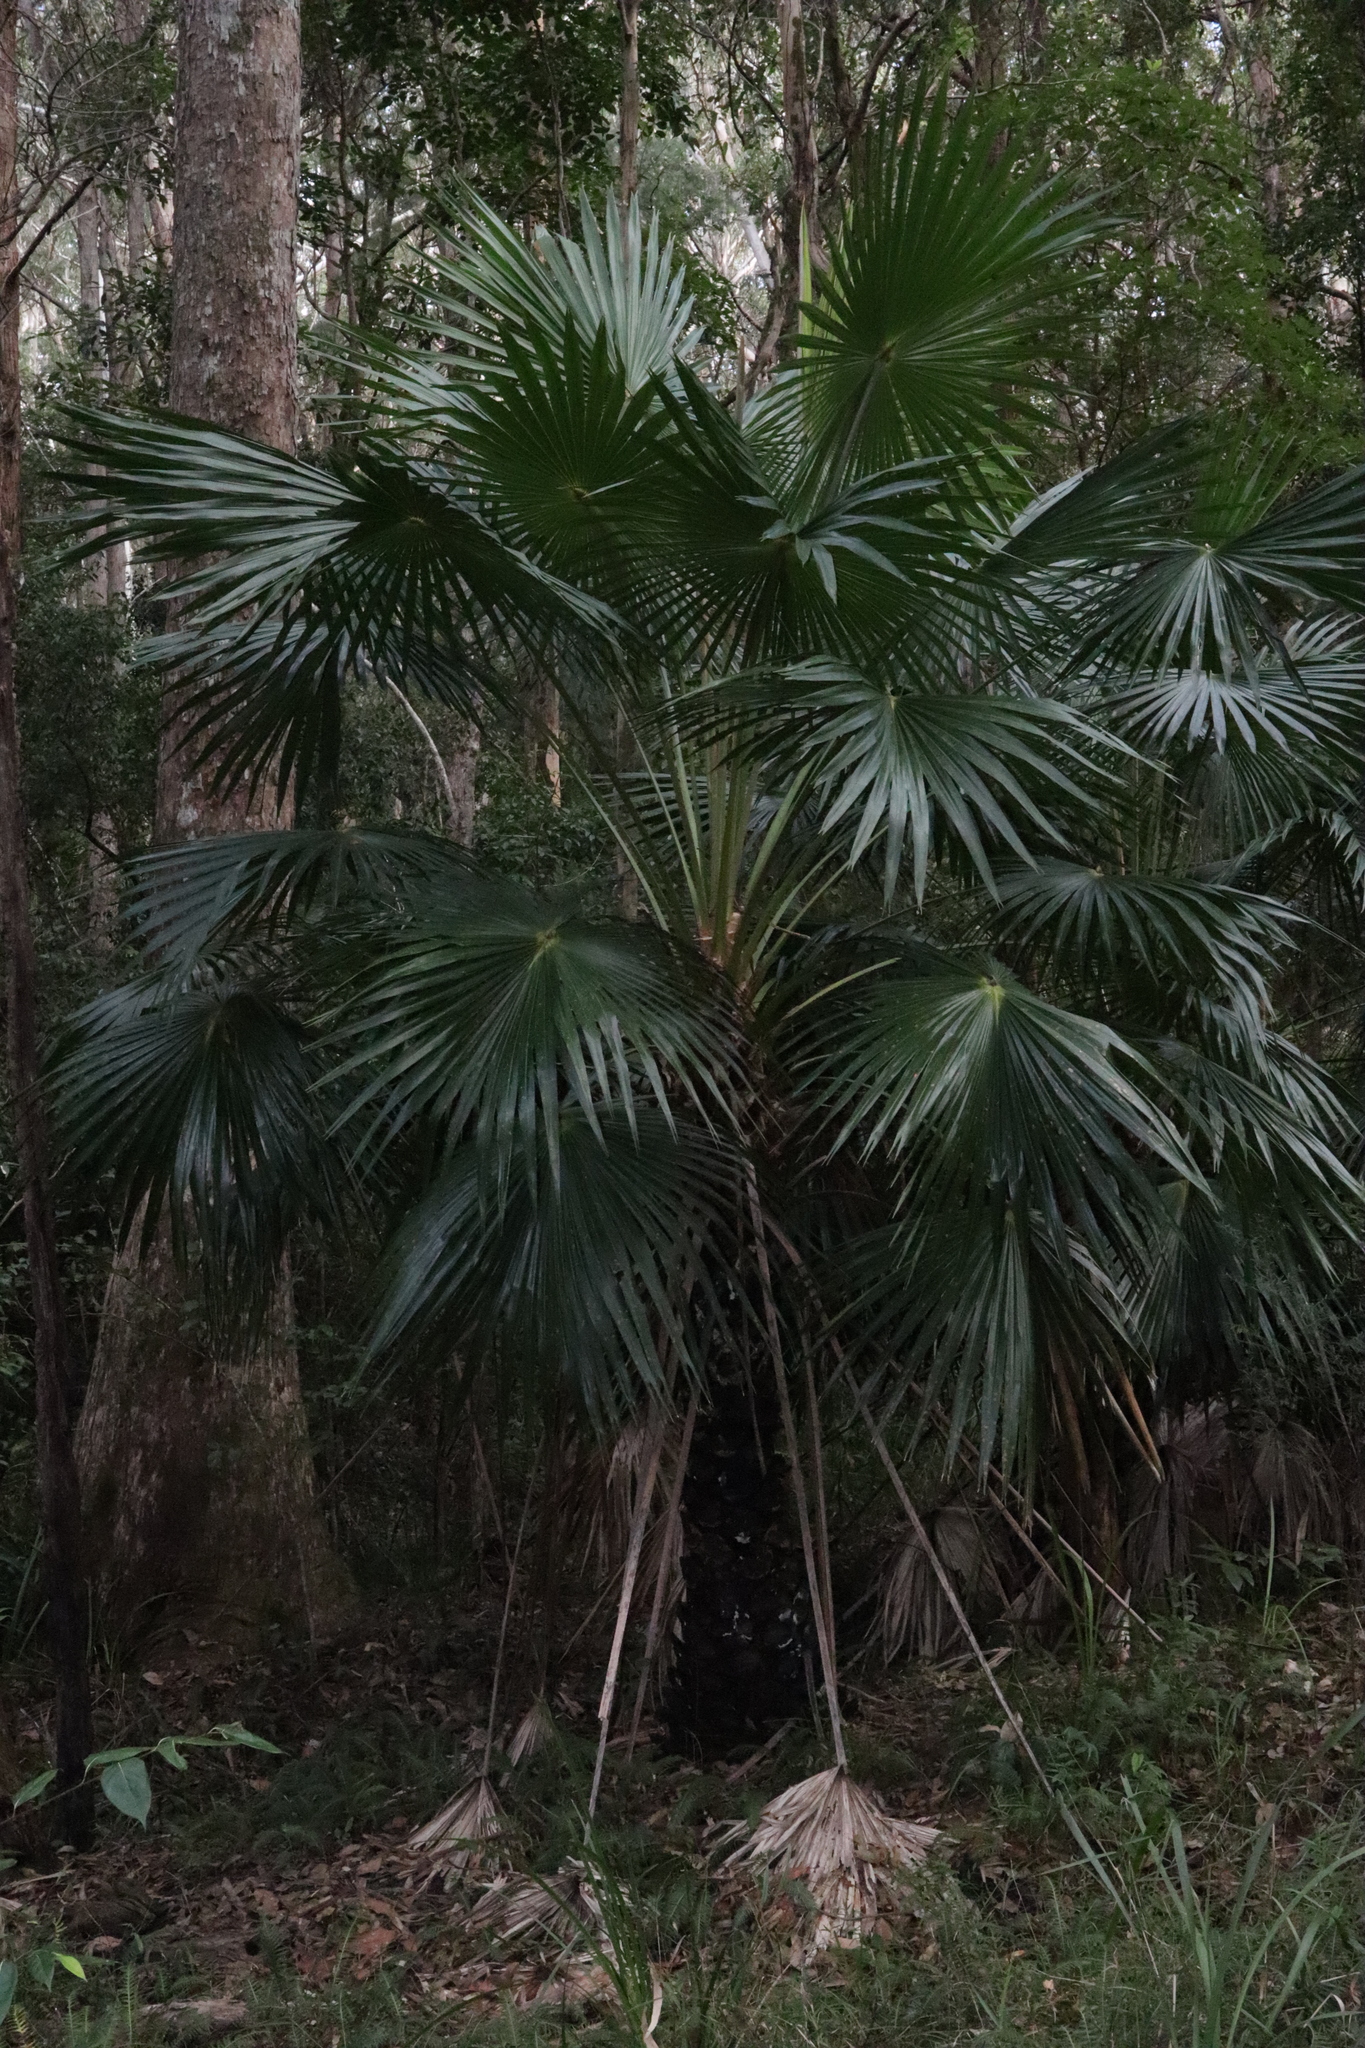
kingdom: Plantae
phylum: Tracheophyta
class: Liliopsida
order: Arecales
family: Arecaceae
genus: Livistona
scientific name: Livistona australis
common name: Cabbage fan palm
